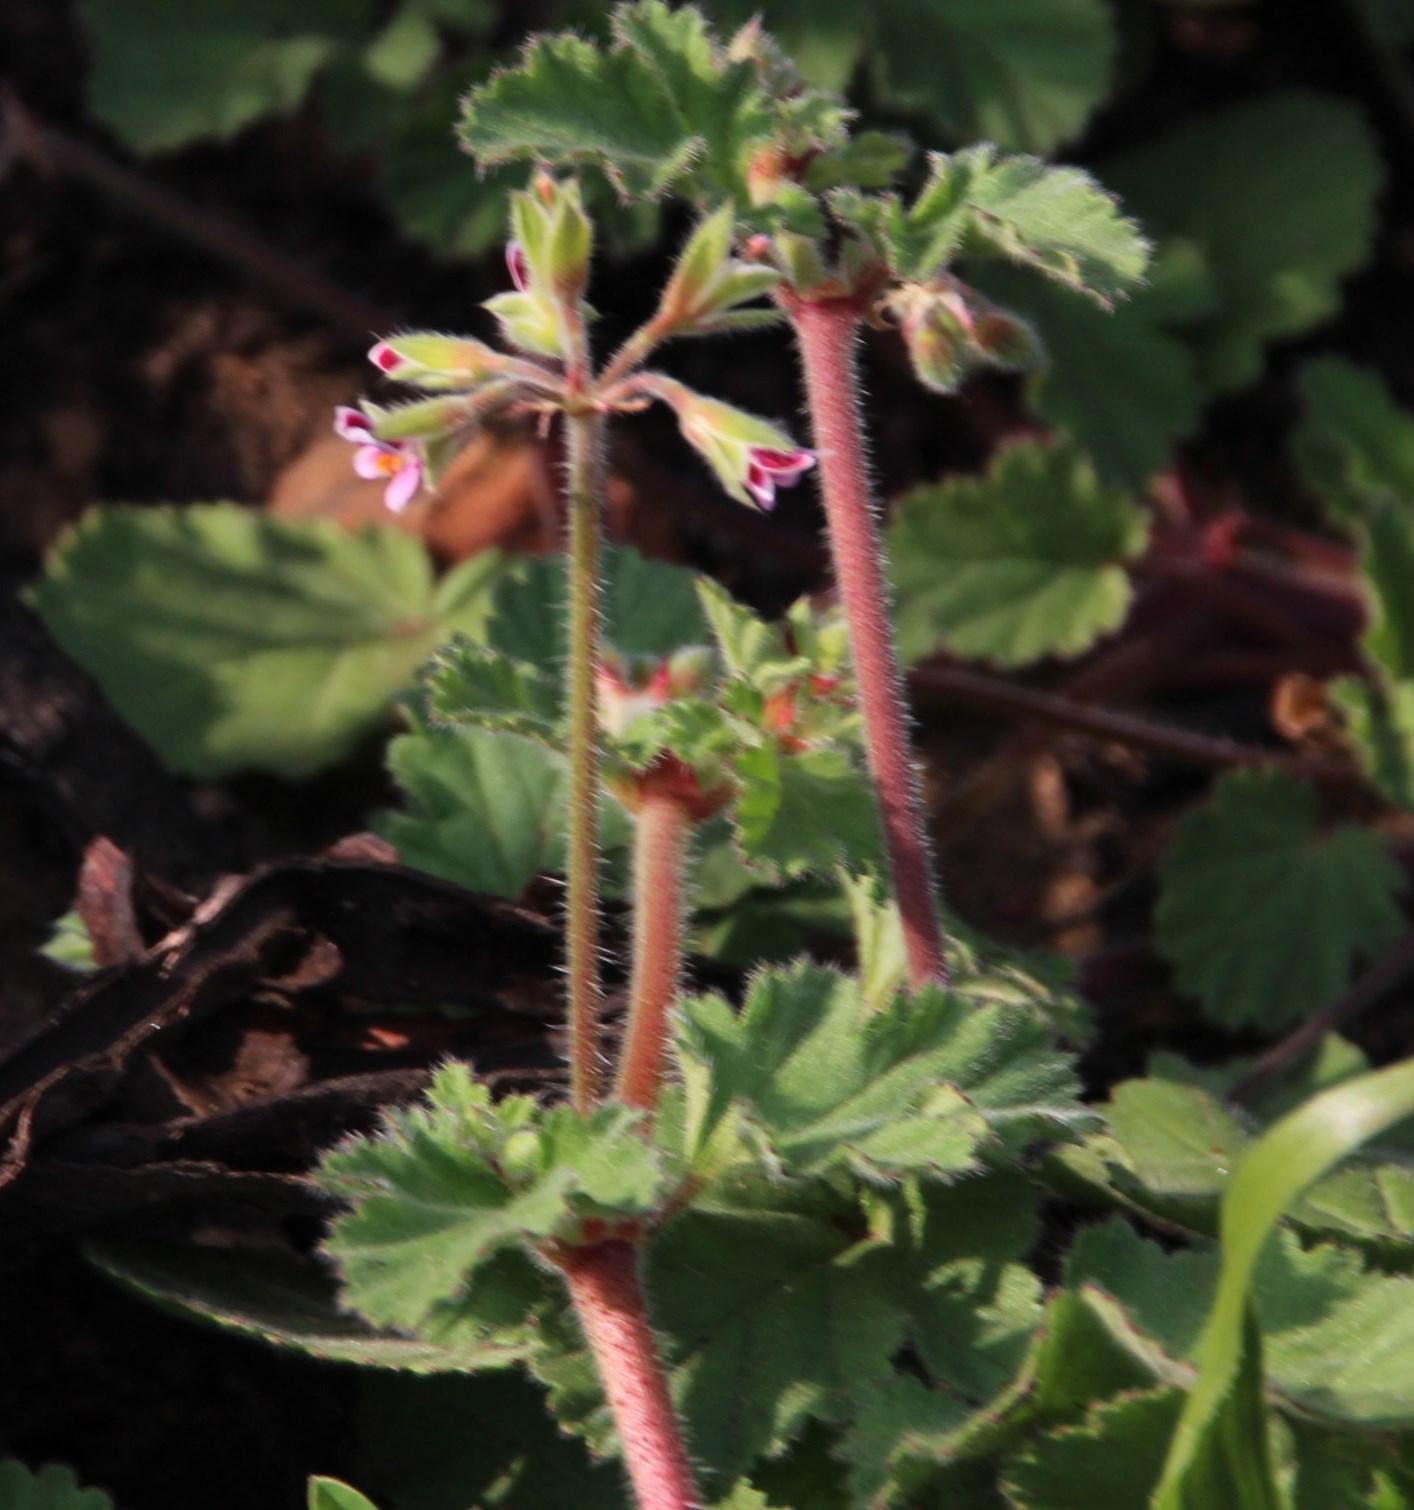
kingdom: Plantae
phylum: Tracheophyta
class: Magnoliopsida
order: Geraniales
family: Geraniaceae
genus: Pelargonium
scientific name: Pelargonium althaeoides
